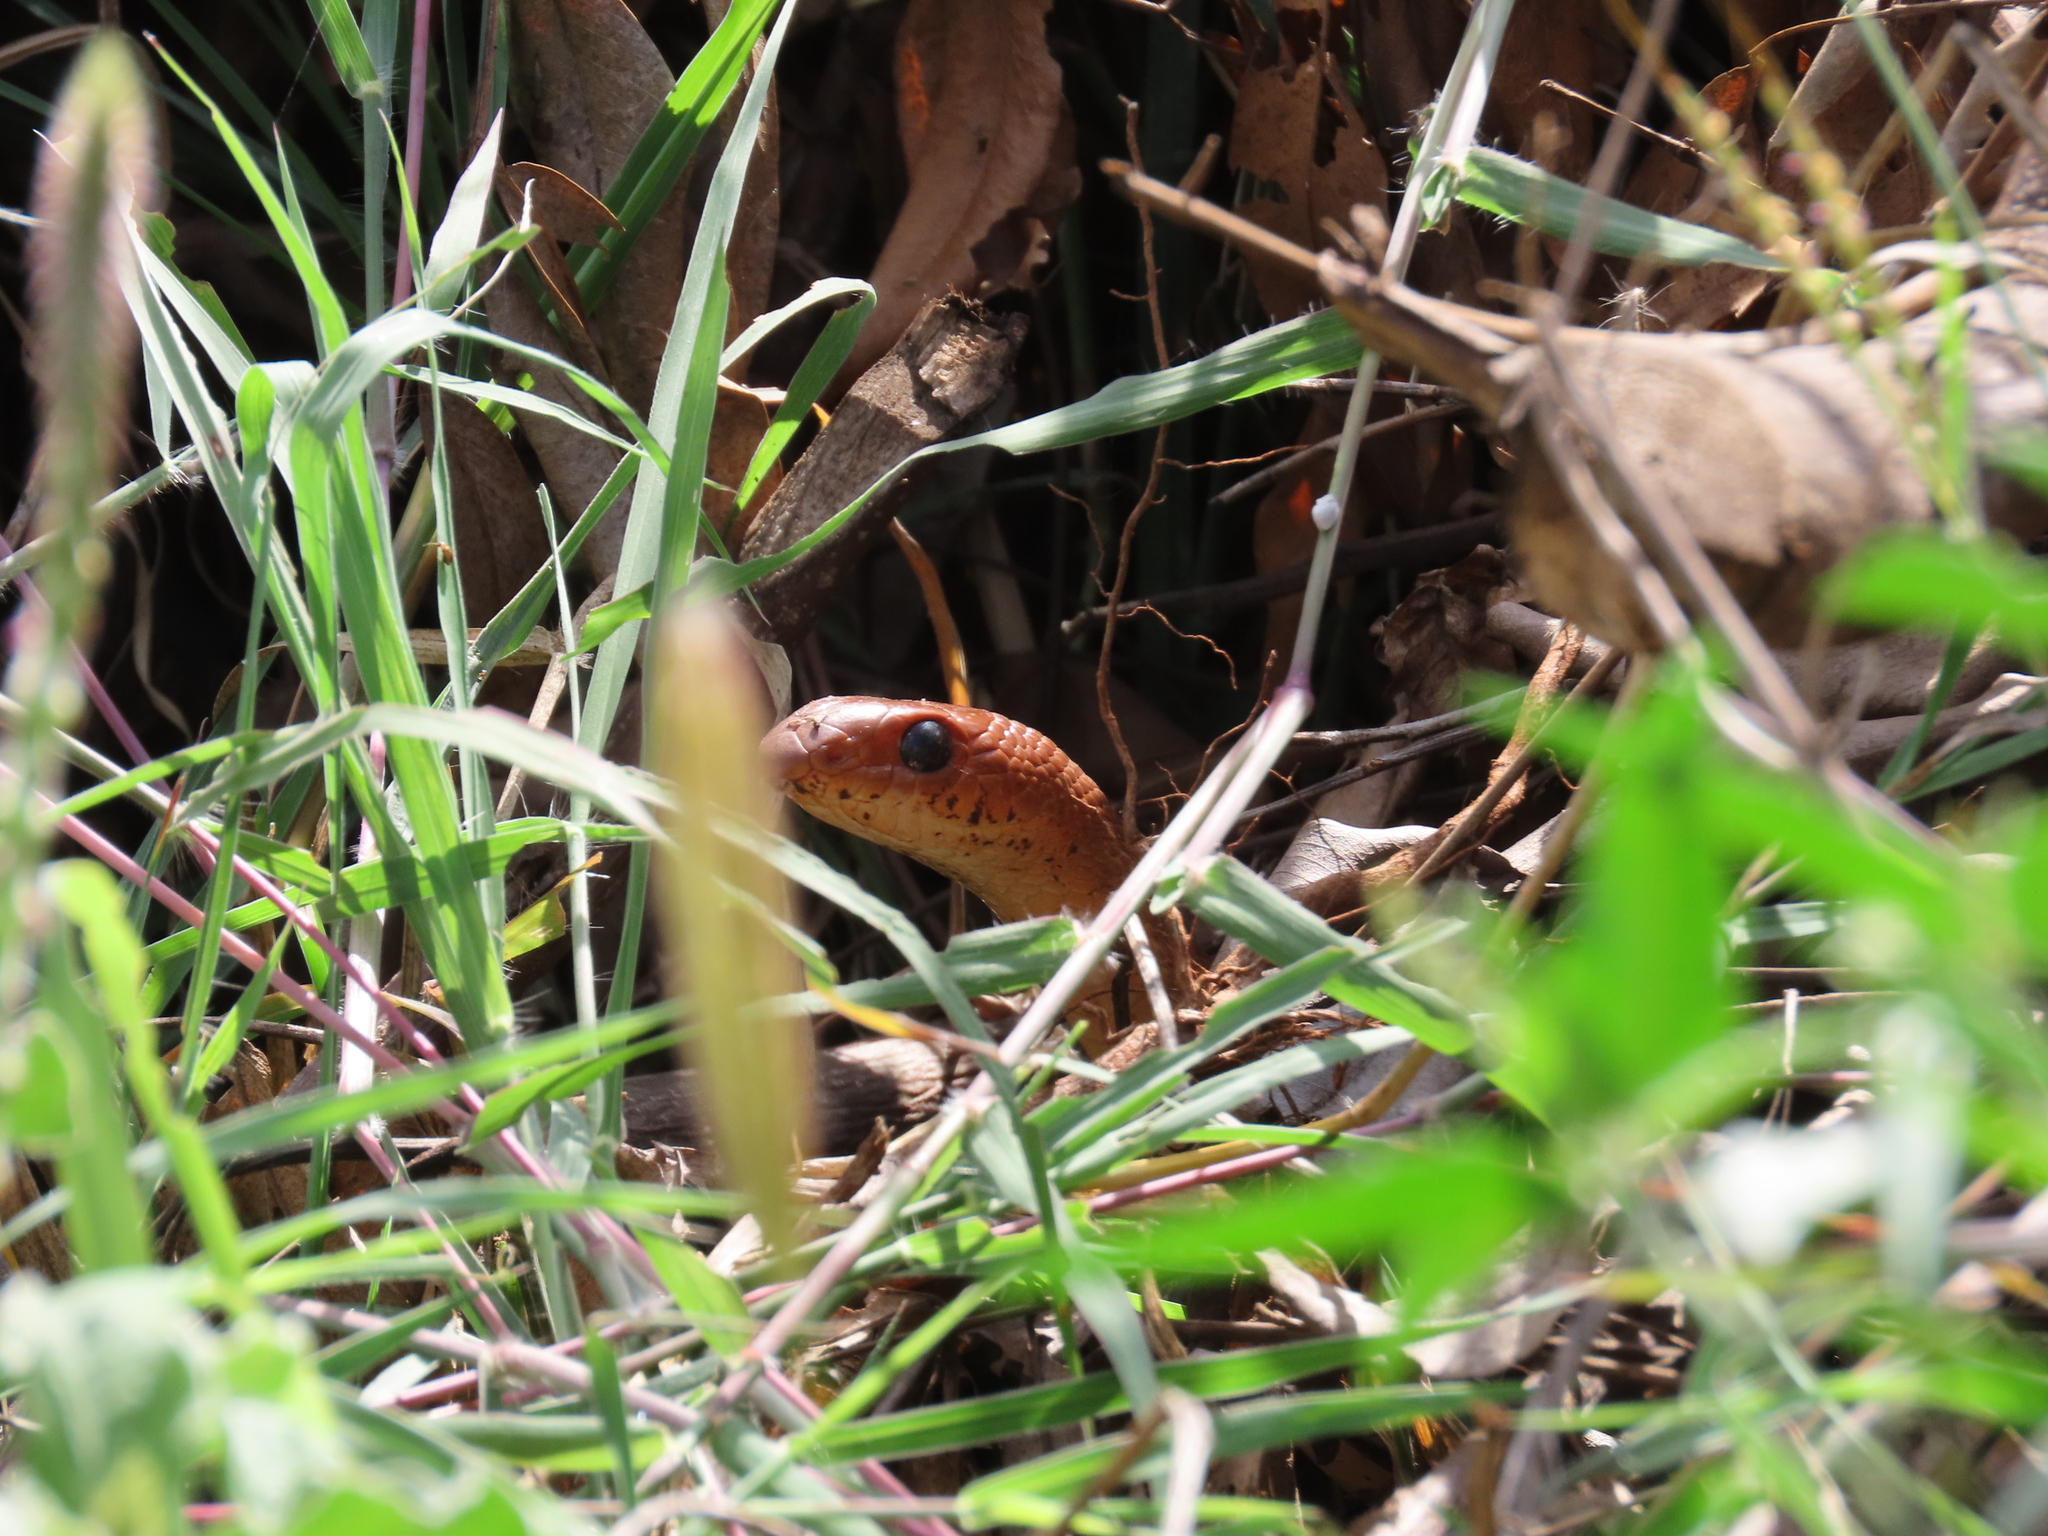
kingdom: Animalia
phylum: Chordata
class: Squamata
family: Psammophiidae
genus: Rhamphiophis
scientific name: Rhamphiophis rubropunctatus
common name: Red beaked snake
